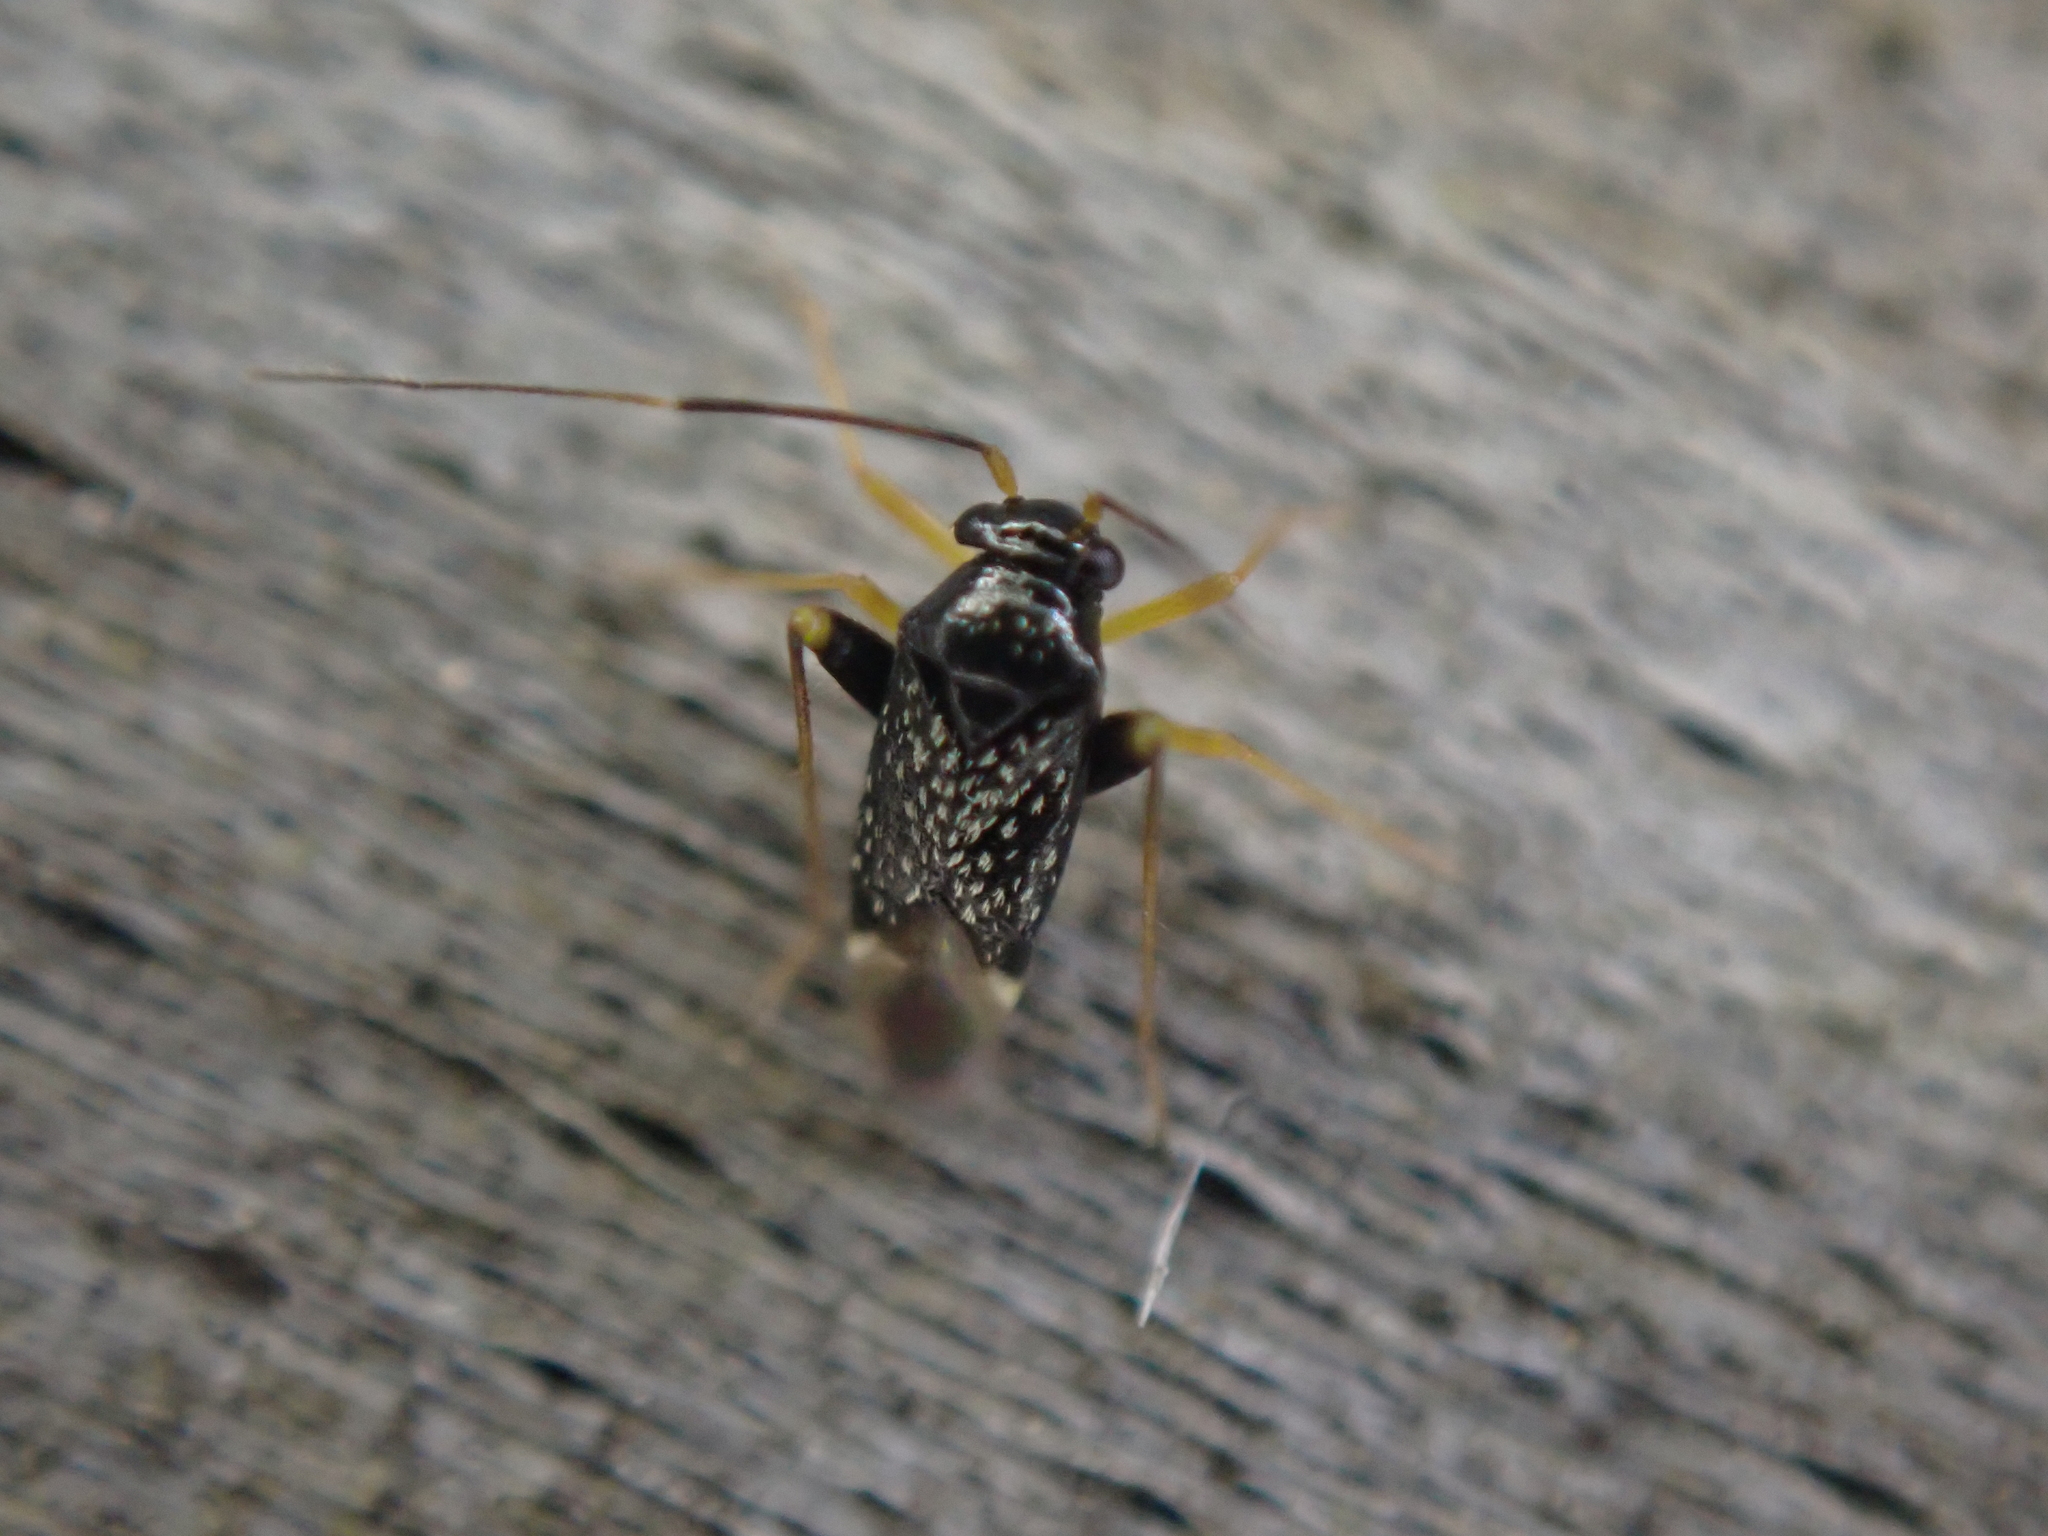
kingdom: Animalia
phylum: Arthropoda
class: Insecta
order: Hemiptera
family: Miridae
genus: Microtechnites
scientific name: Microtechnites bractatus
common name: Garden fleahopper
